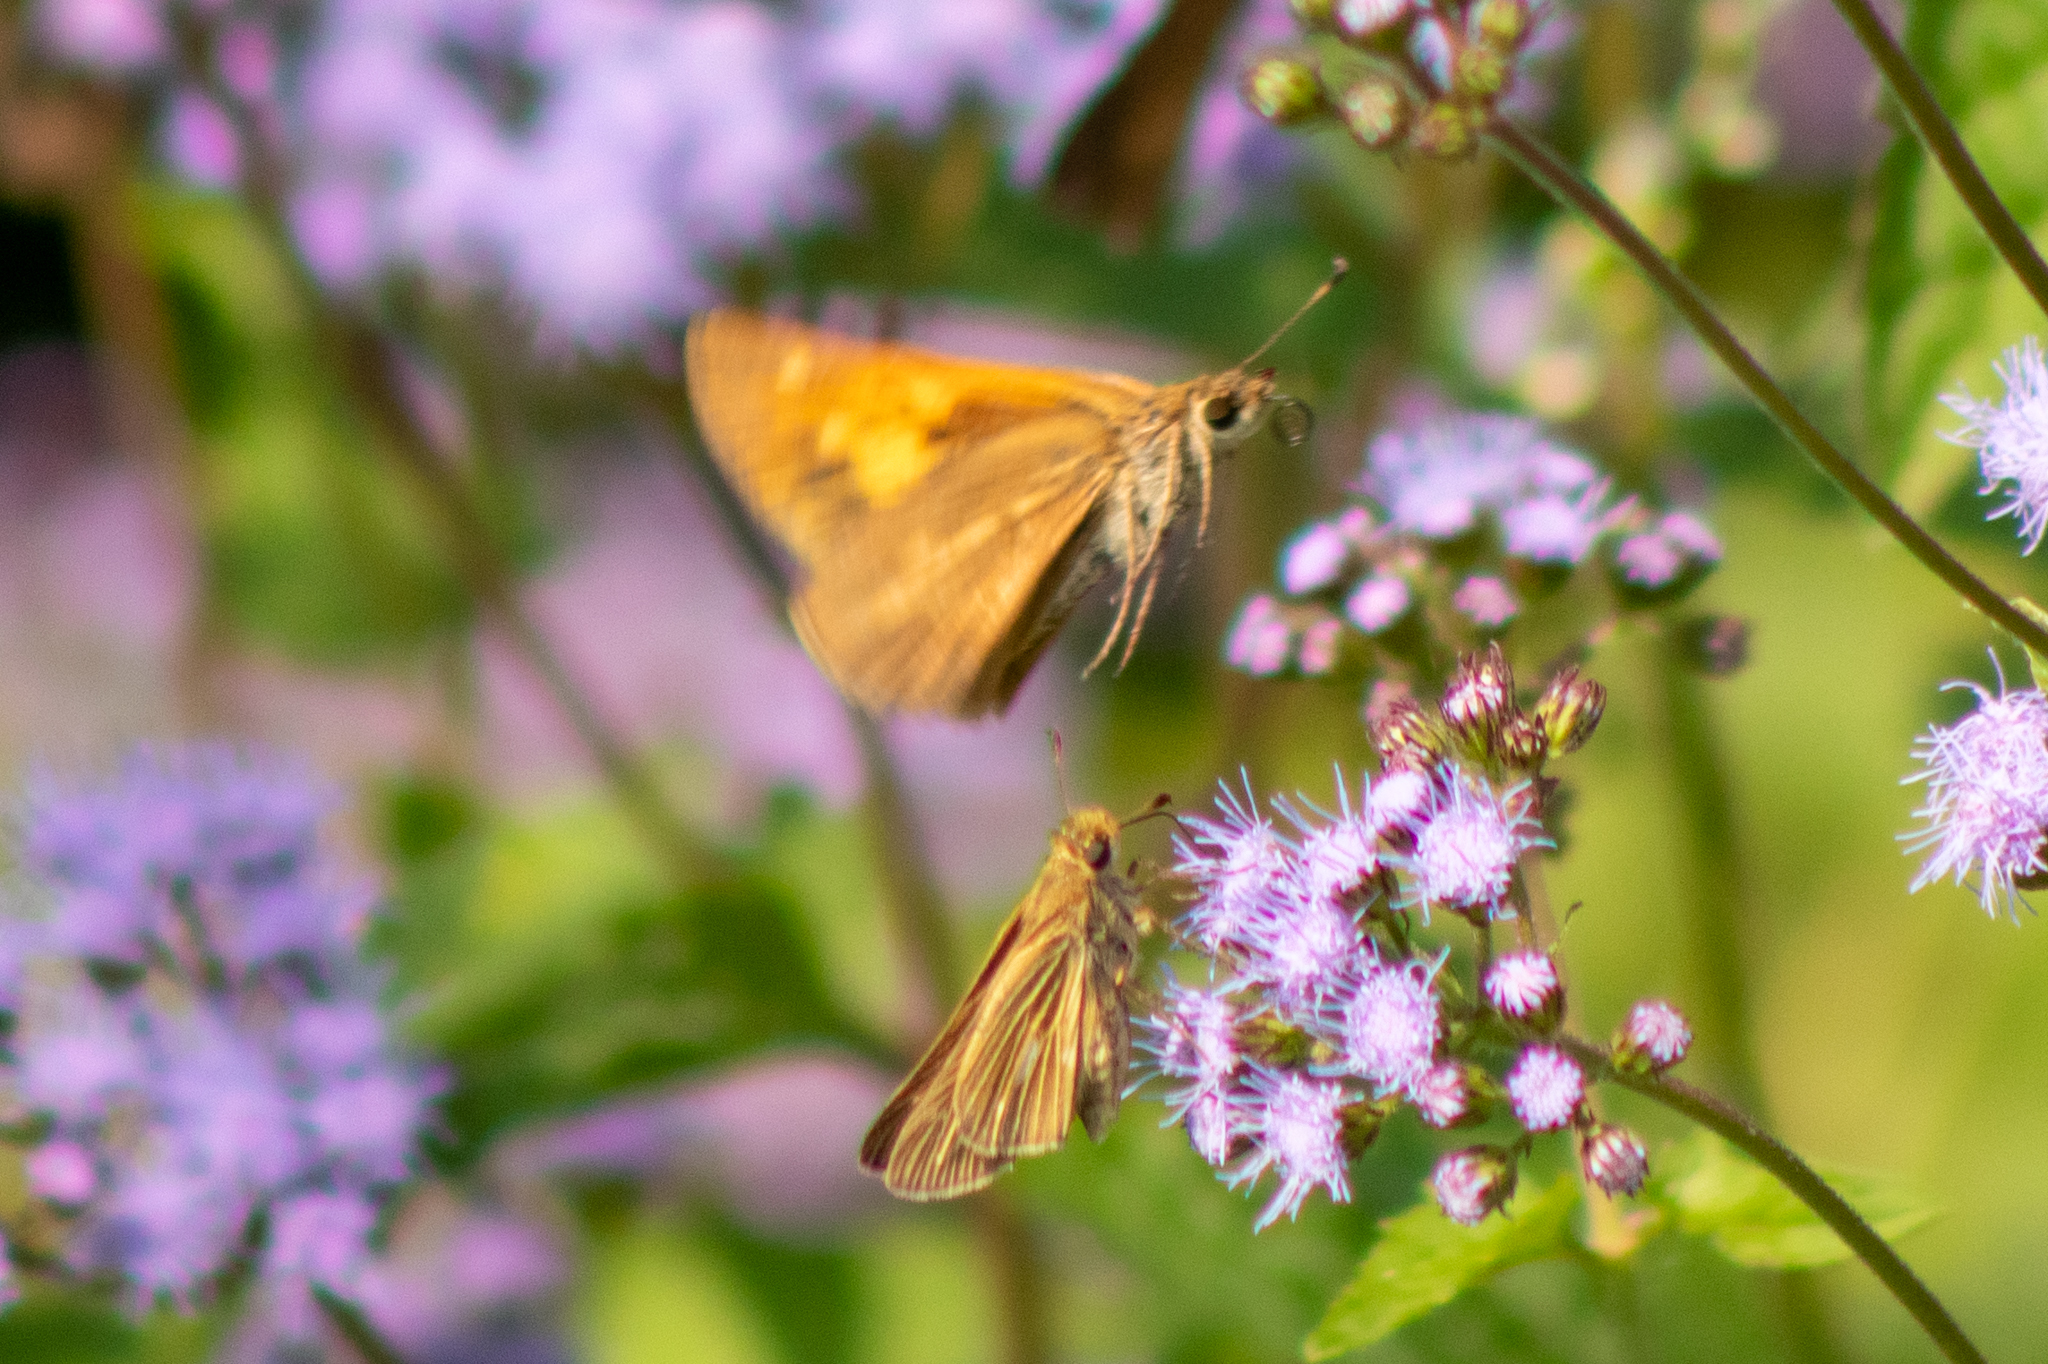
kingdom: Animalia
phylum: Arthropoda
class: Insecta
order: Lepidoptera
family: Hesperiidae
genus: Poanes
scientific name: Poanes viator
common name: Broad-winged skipper
